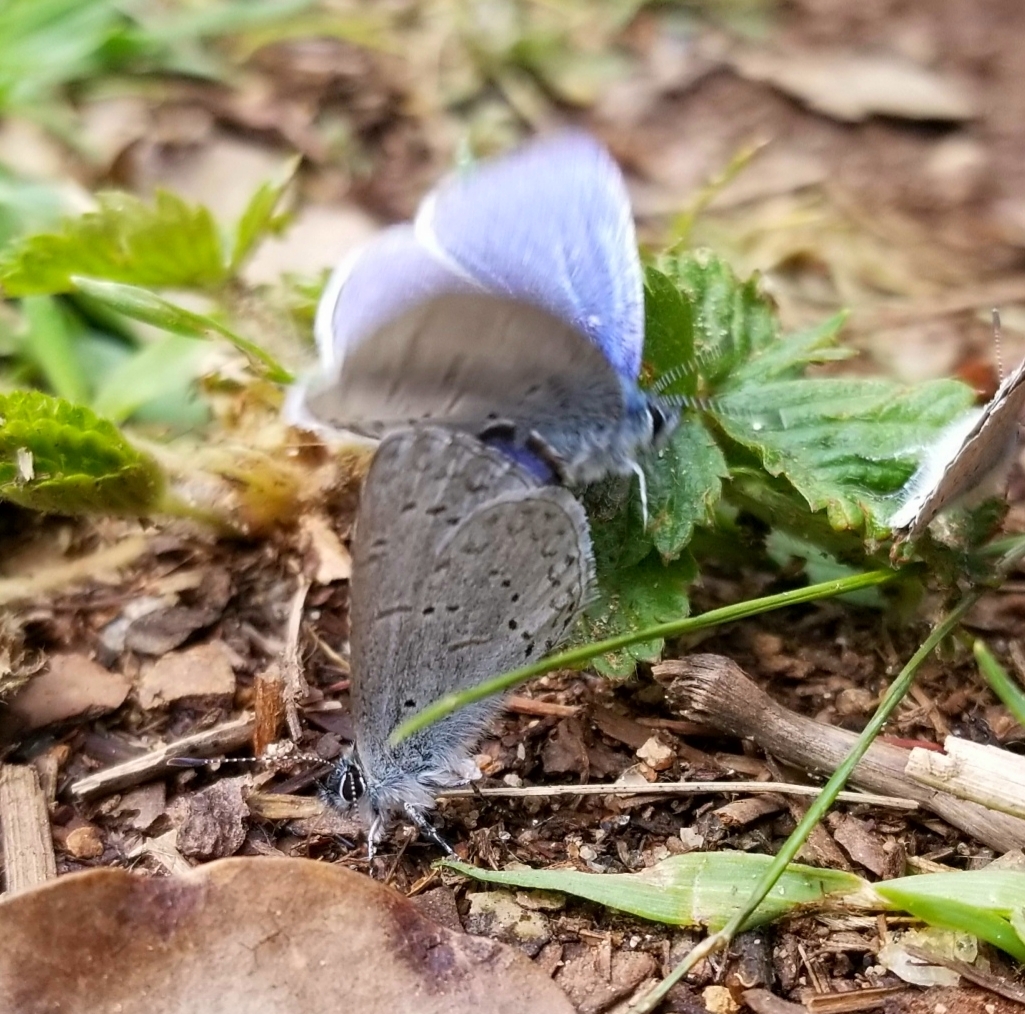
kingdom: Animalia
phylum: Arthropoda
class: Insecta
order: Lepidoptera
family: Lycaenidae
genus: Celastrina
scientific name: Celastrina ladon
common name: Spring azure
